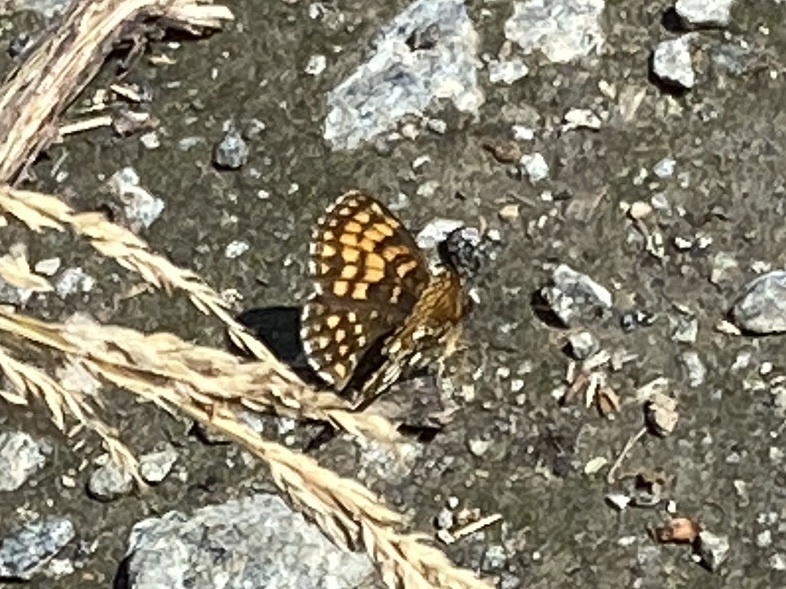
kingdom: Animalia
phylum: Arthropoda
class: Insecta
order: Lepidoptera
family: Nymphalidae
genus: Melitaea
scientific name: Melitaea athalia
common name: Heath fritillary
